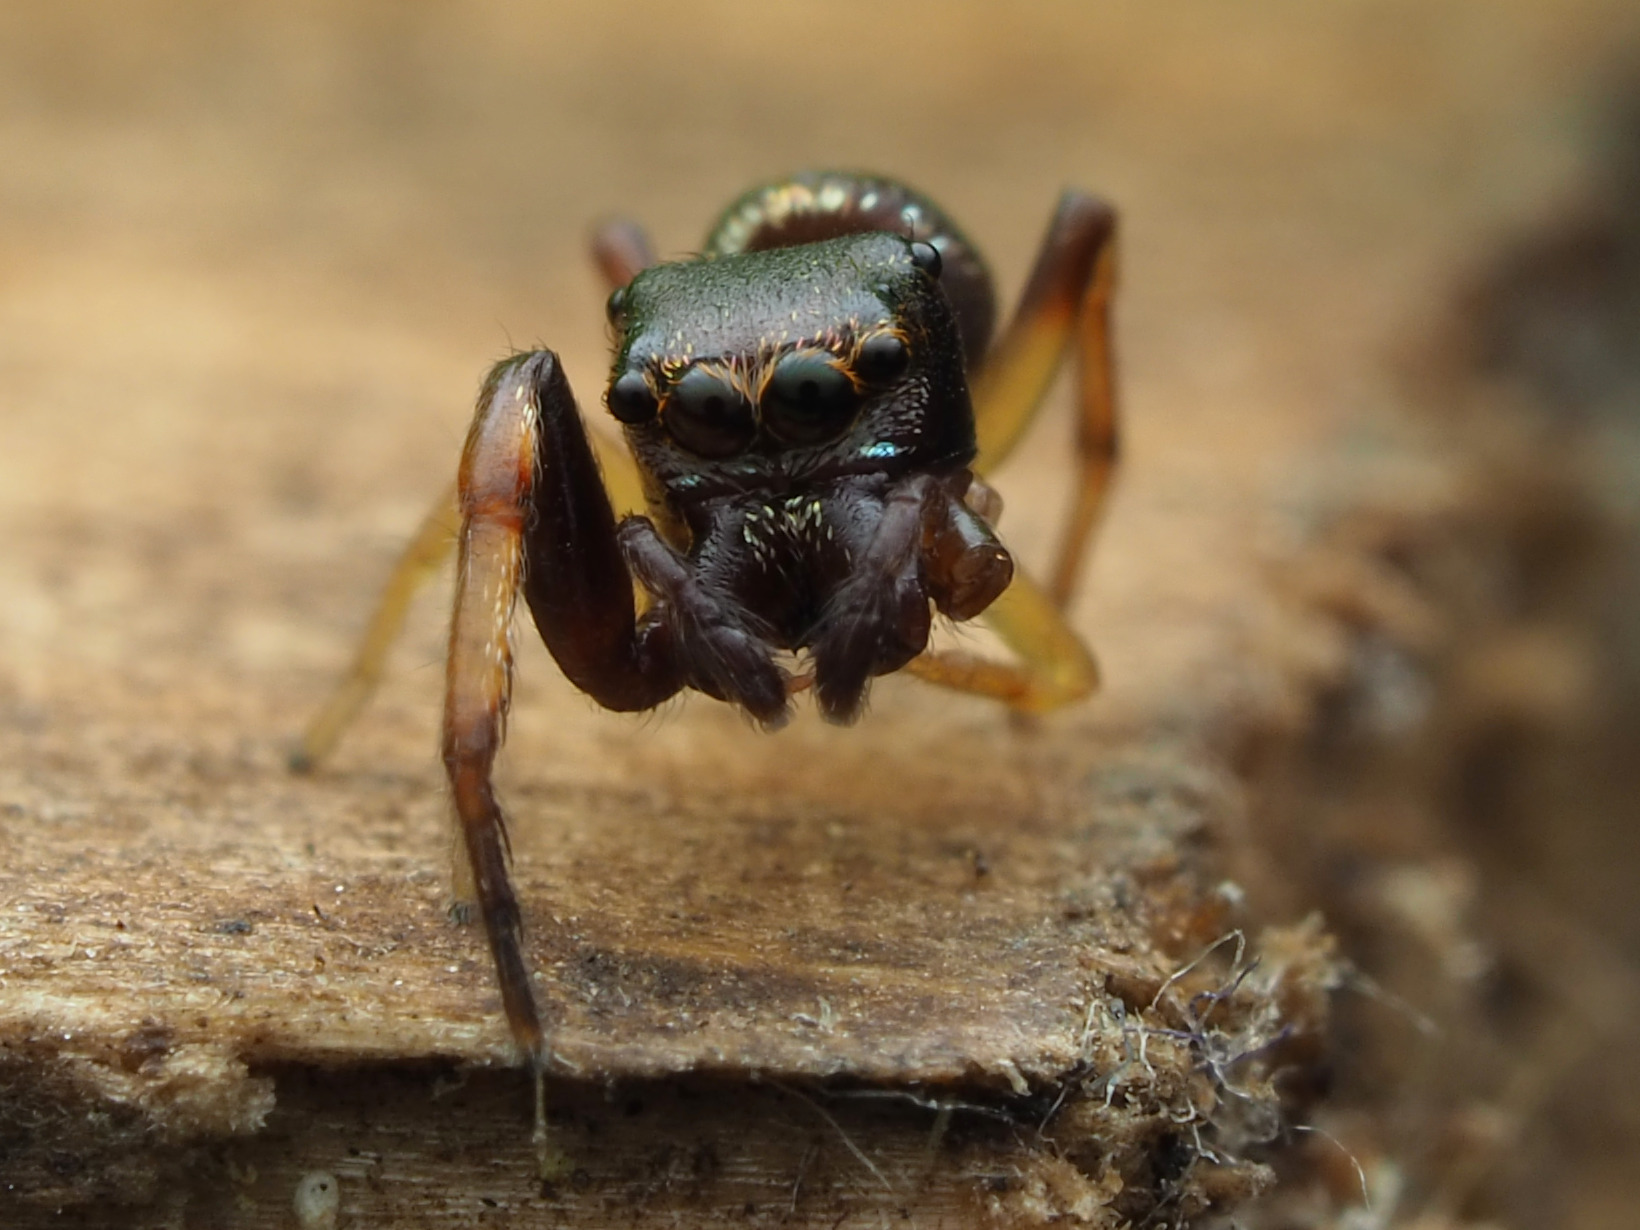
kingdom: Animalia
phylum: Arthropoda
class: Arachnida
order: Araneae
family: Salticidae
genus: Zygoballus
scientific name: Zygoballus rufipes
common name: Jumping spiders
